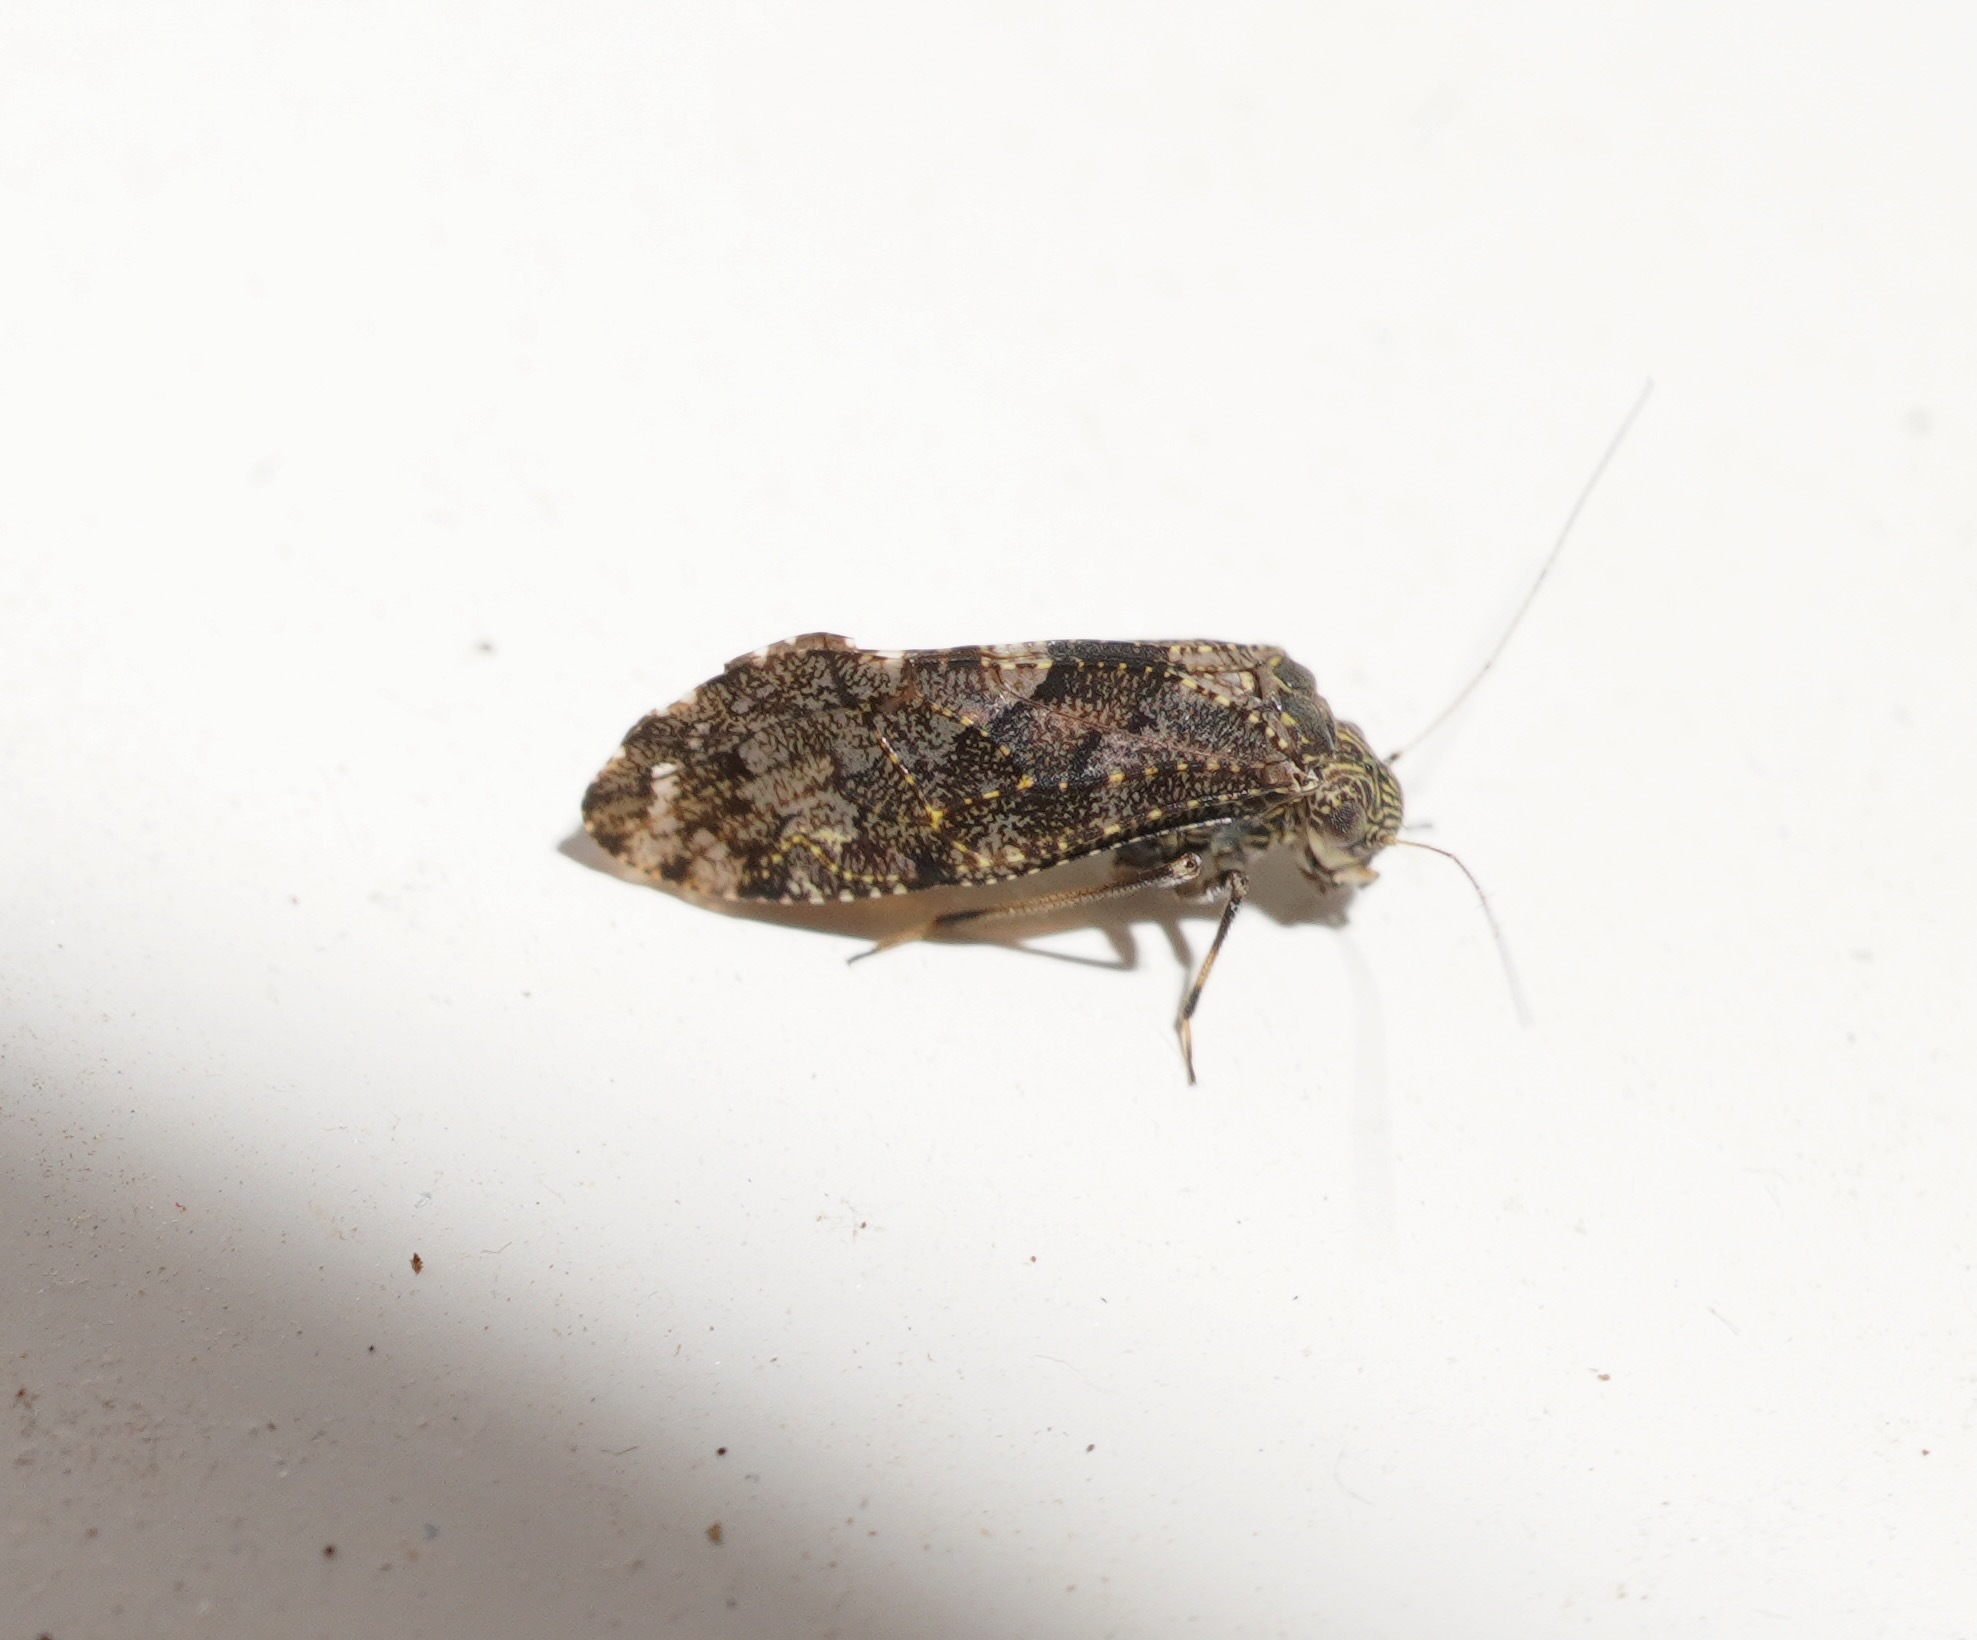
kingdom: Animalia
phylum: Arthropoda
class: Insecta
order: Psocodea
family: Myopsocidae
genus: Nimbopsocus
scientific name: Nimbopsocus australis
